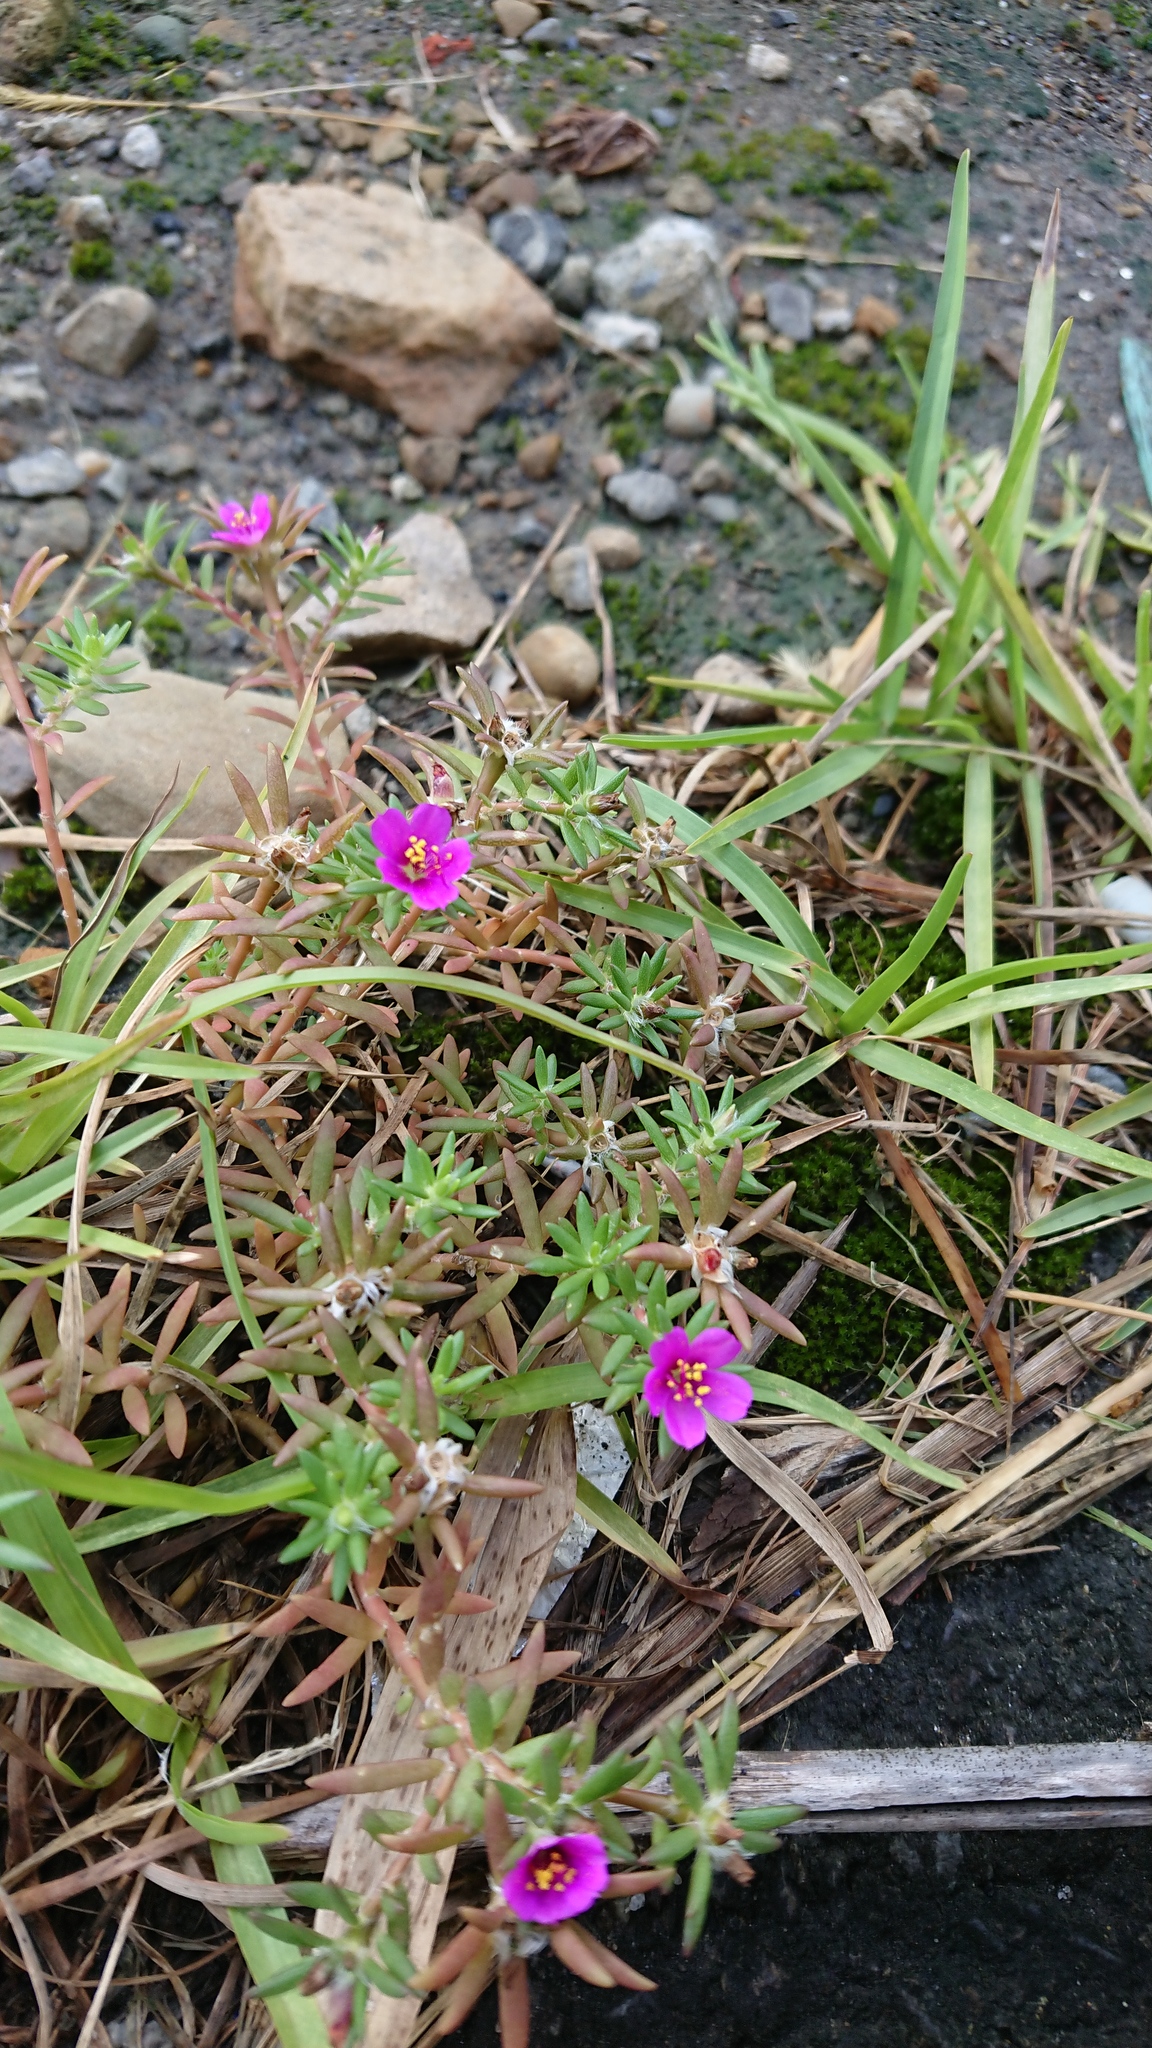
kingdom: Plantae
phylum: Tracheophyta
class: Magnoliopsida
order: Caryophyllales
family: Portulacaceae
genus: Portulaca
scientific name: Portulaca pilosa
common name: Kiss me quick
